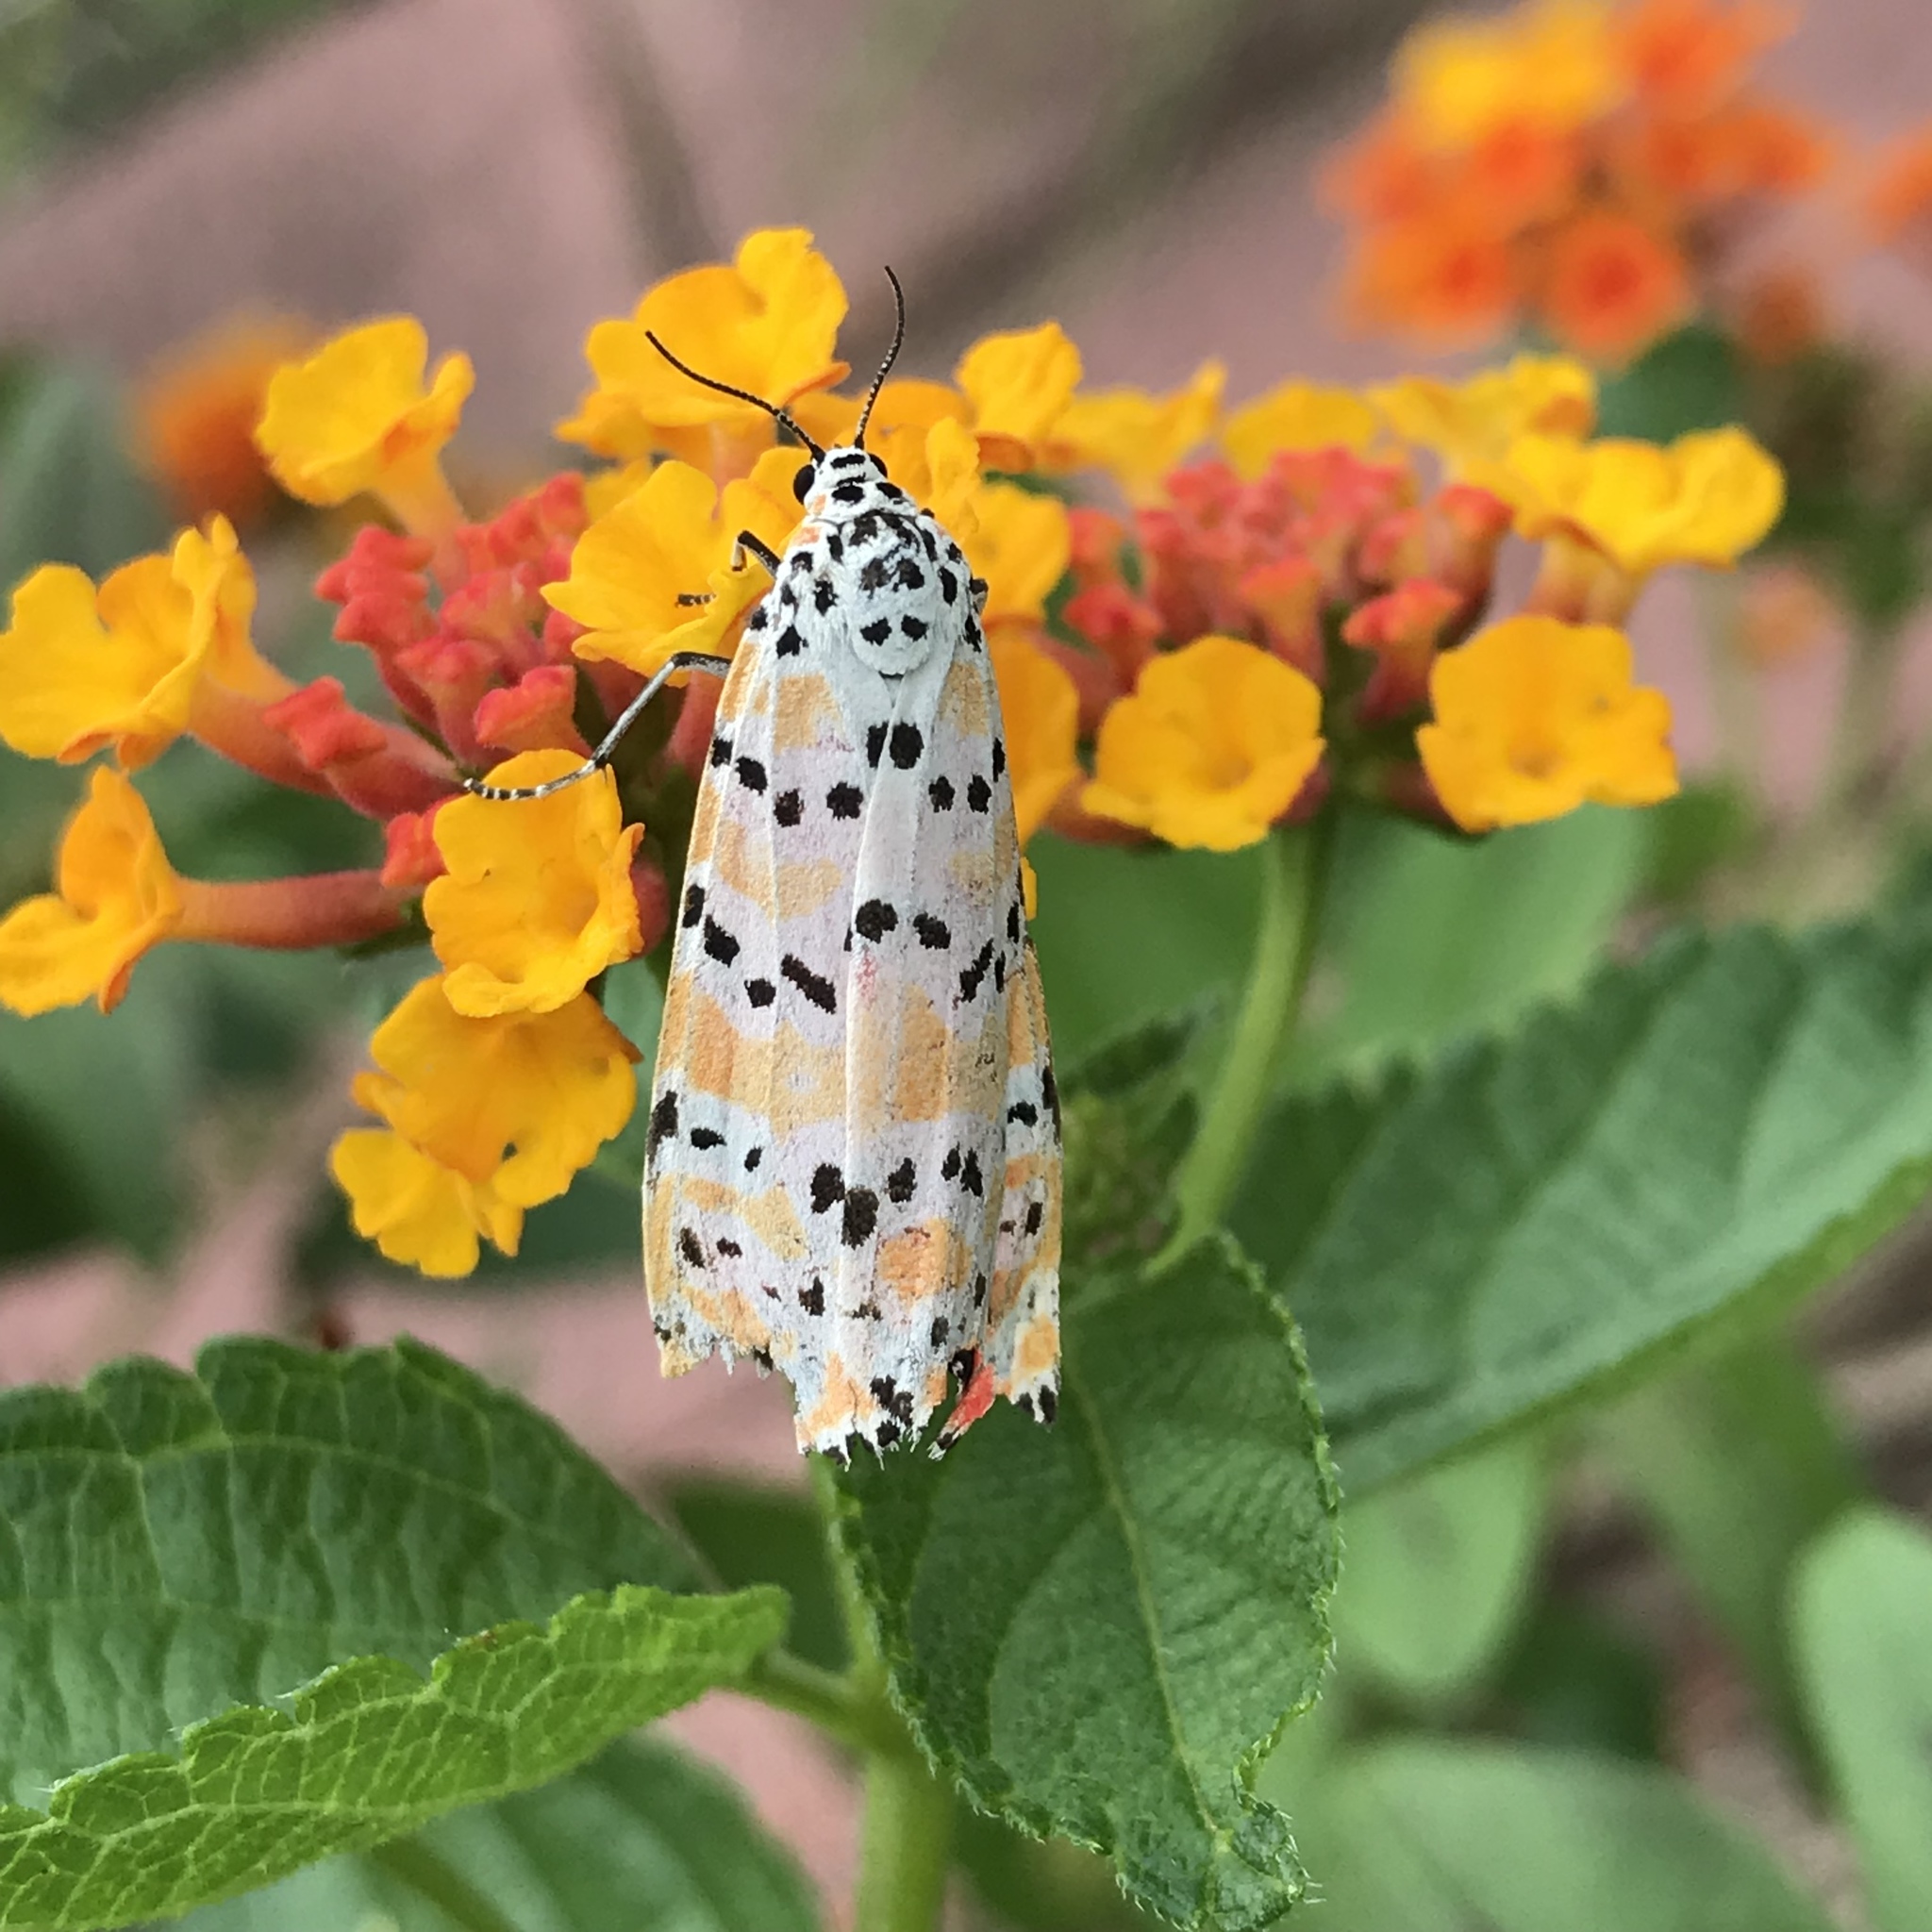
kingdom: Animalia
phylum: Arthropoda
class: Insecta
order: Lepidoptera
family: Erebidae
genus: Utetheisa
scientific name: Utetheisa ornatrix
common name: Beautiful utetheisa
